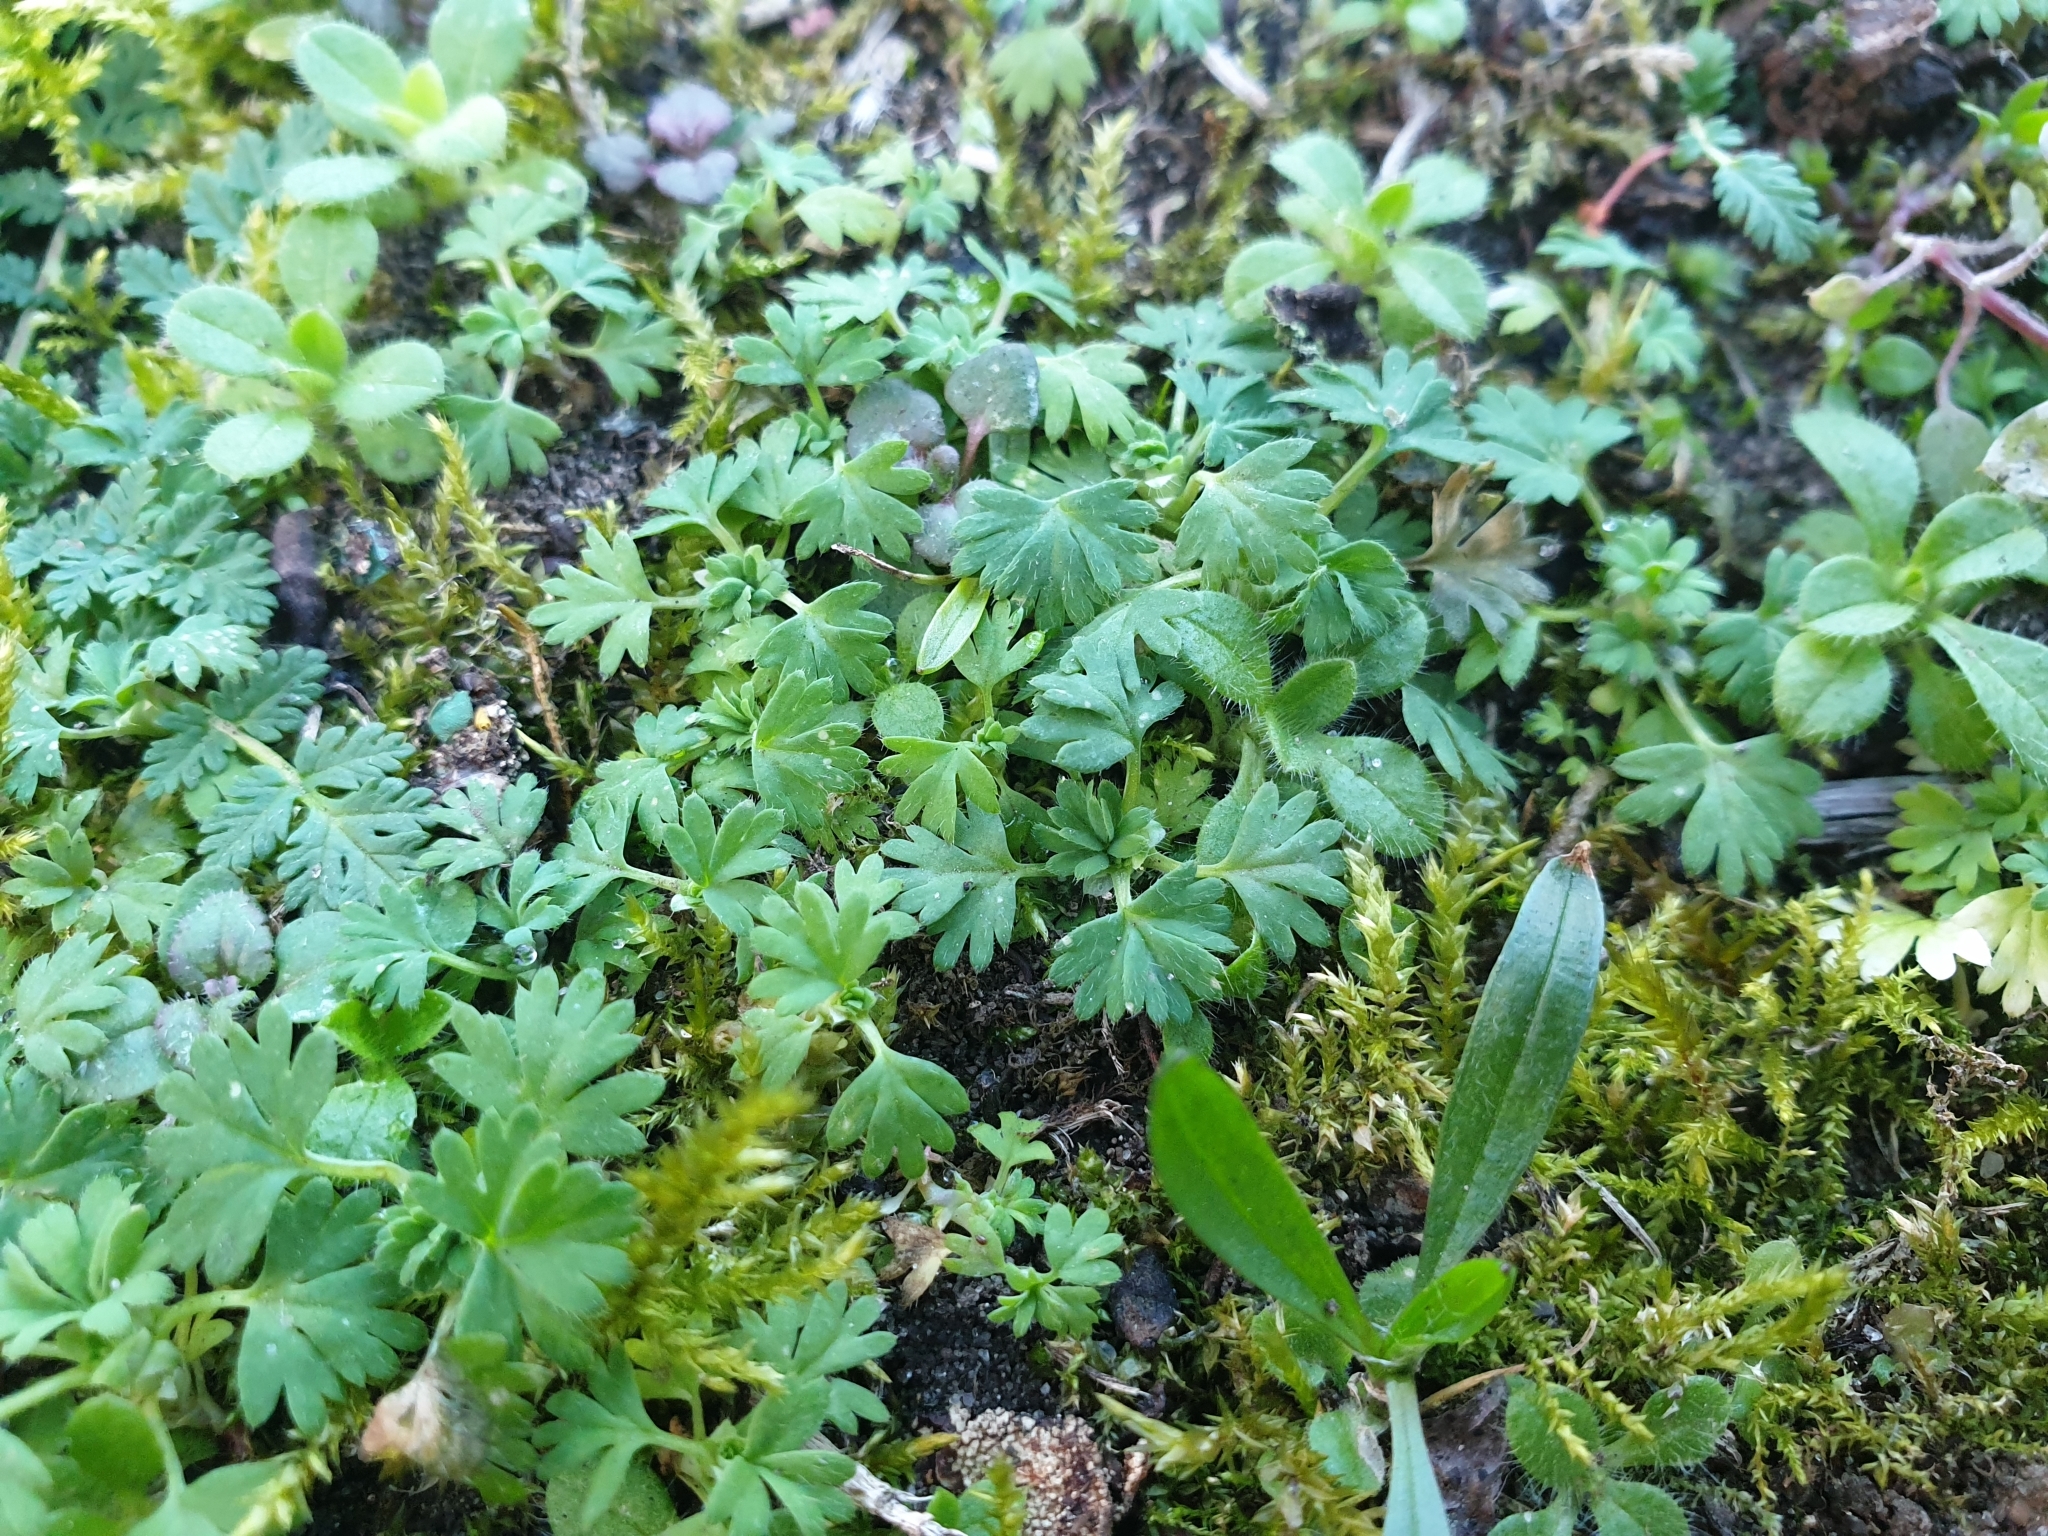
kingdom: Plantae
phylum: Tracheophyta
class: Magnoliopsida
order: Rosales
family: Rosaceae
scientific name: Rosaceae
